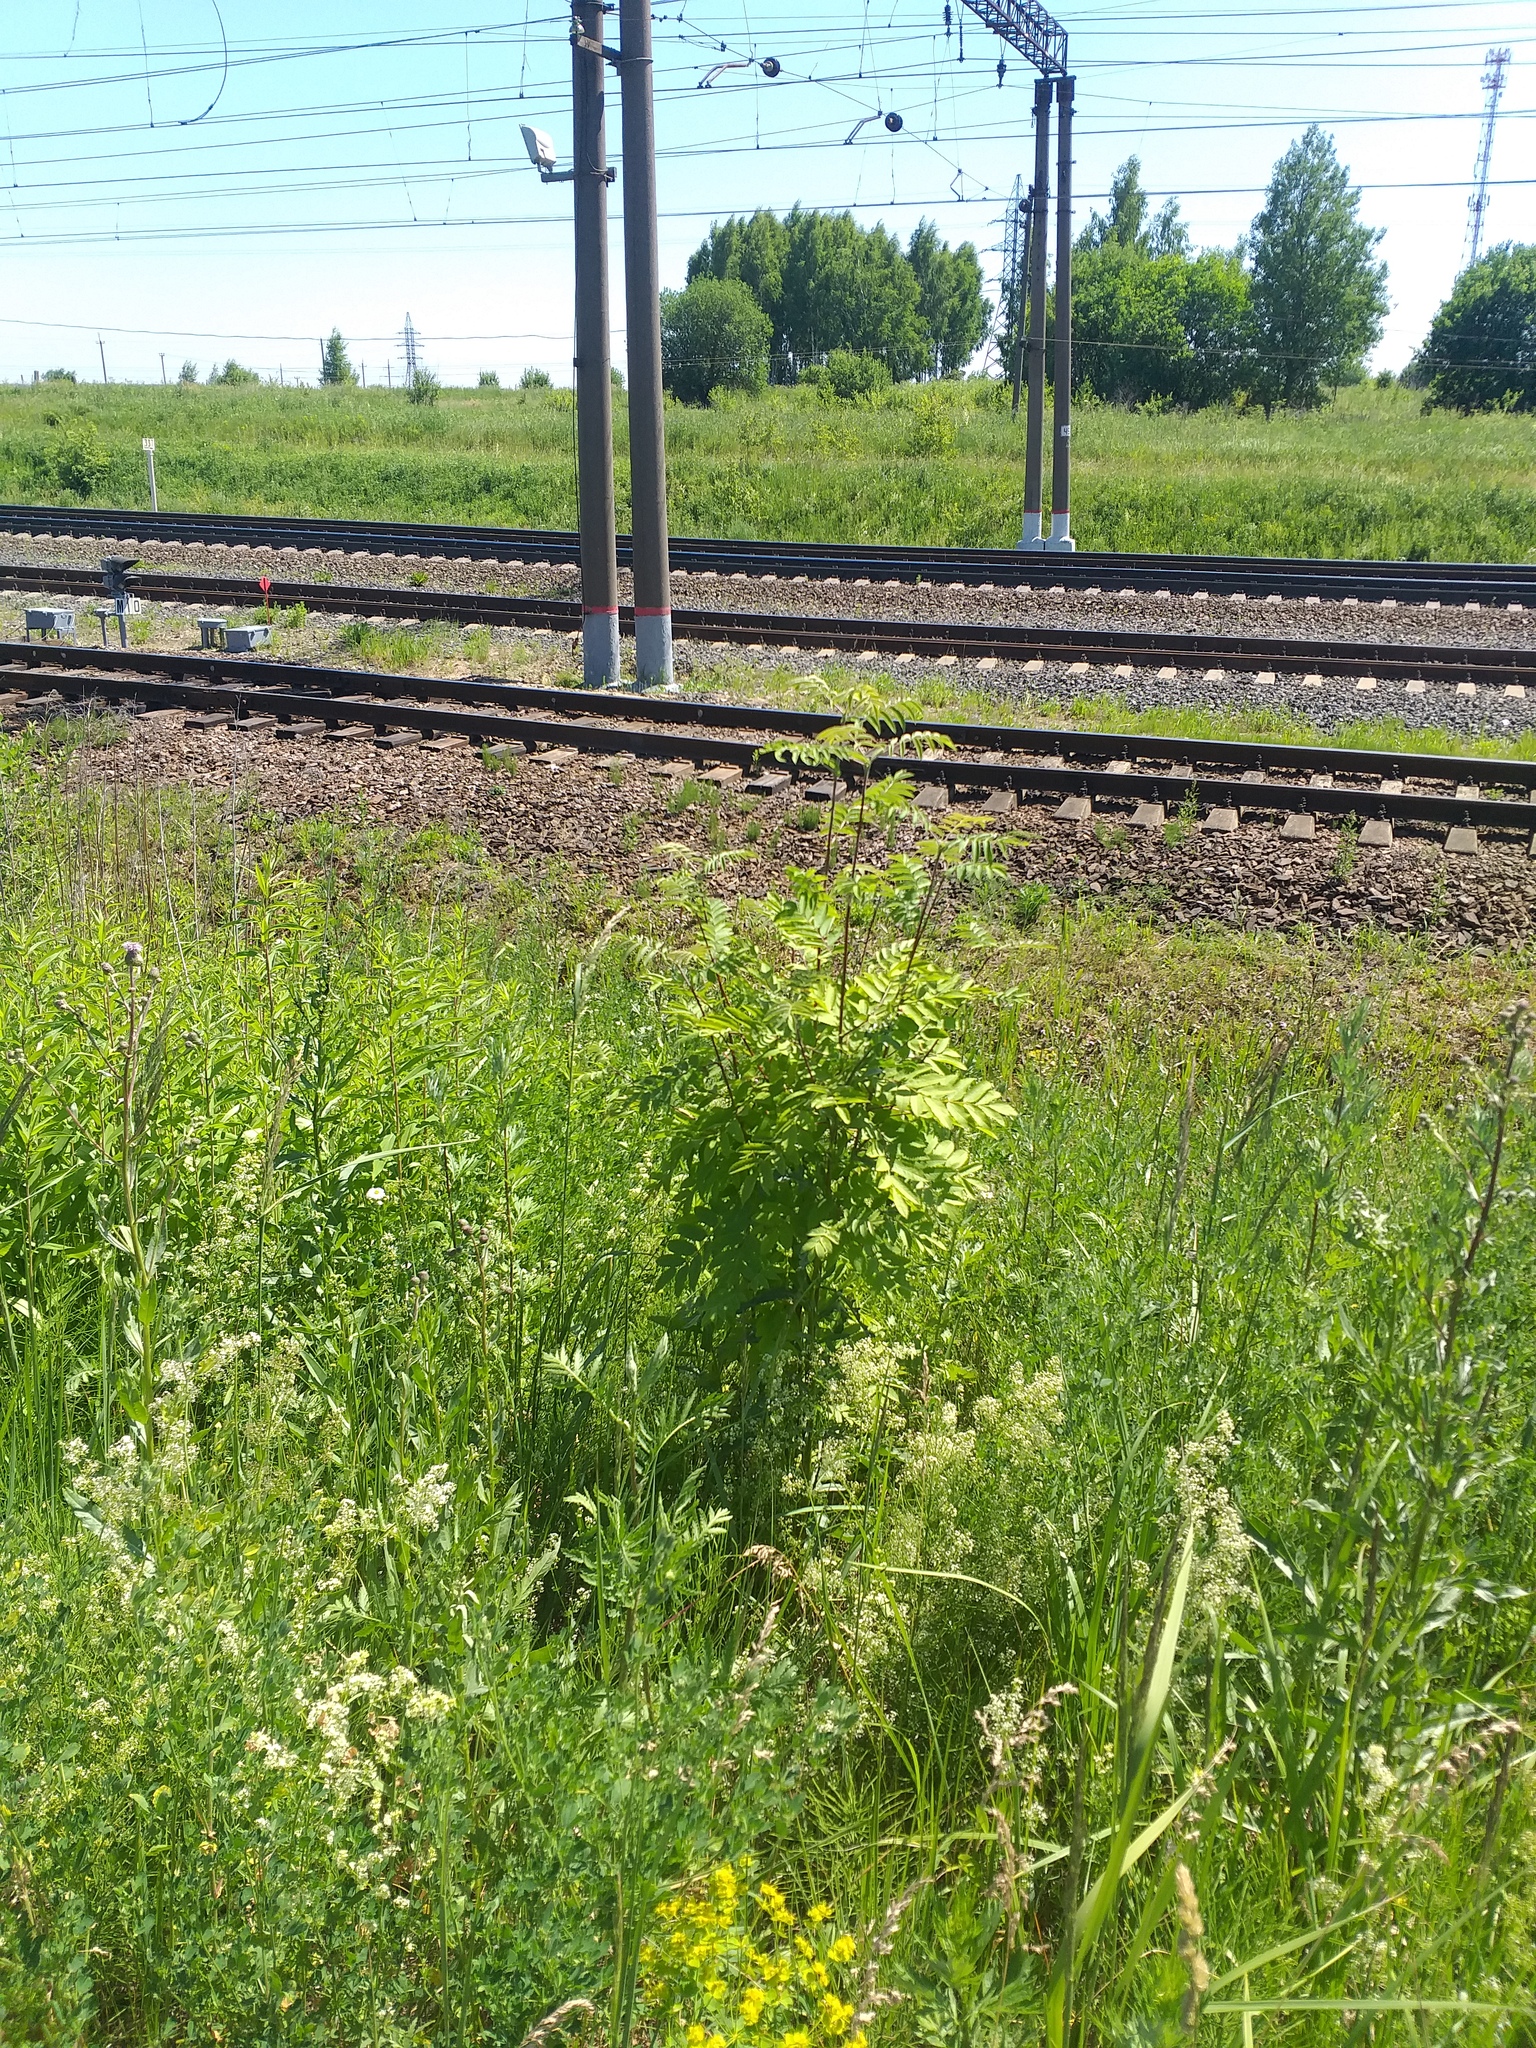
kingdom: Plantae
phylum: Tracheophyta
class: Magnoliopsida
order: Rosales
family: Rosaceae
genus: Sorbus
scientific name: Sorbus aucuparia
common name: Rowan
